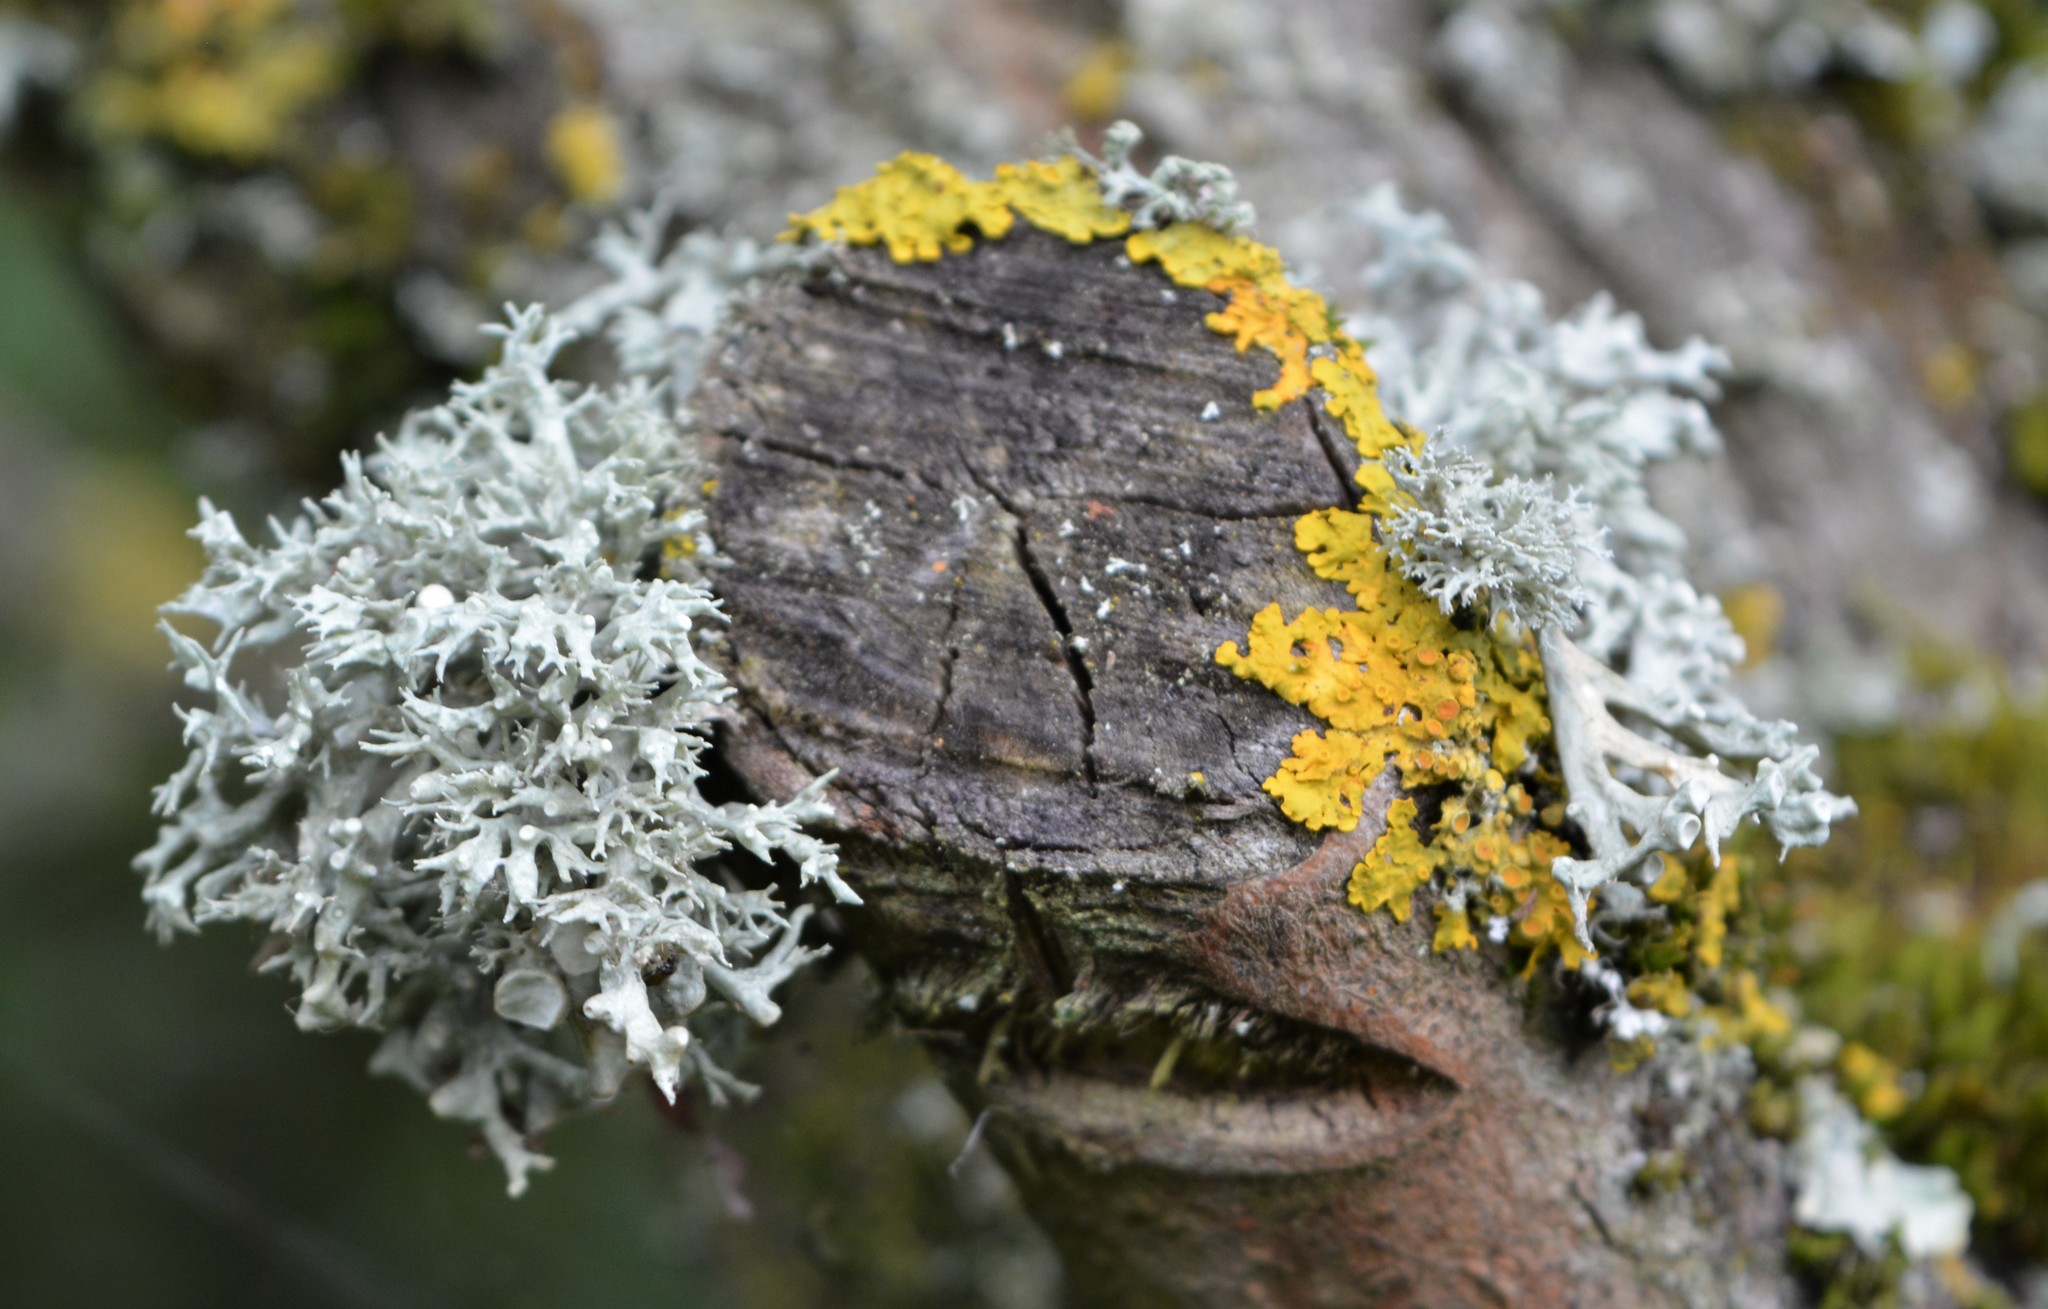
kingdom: Fungi
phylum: Ascomycota
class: Lecanoromycetes
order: Lecanorales
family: Ramalinaceae
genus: Ramalina
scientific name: Ramalina fastigiata
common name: Dotted ribbon lichen
